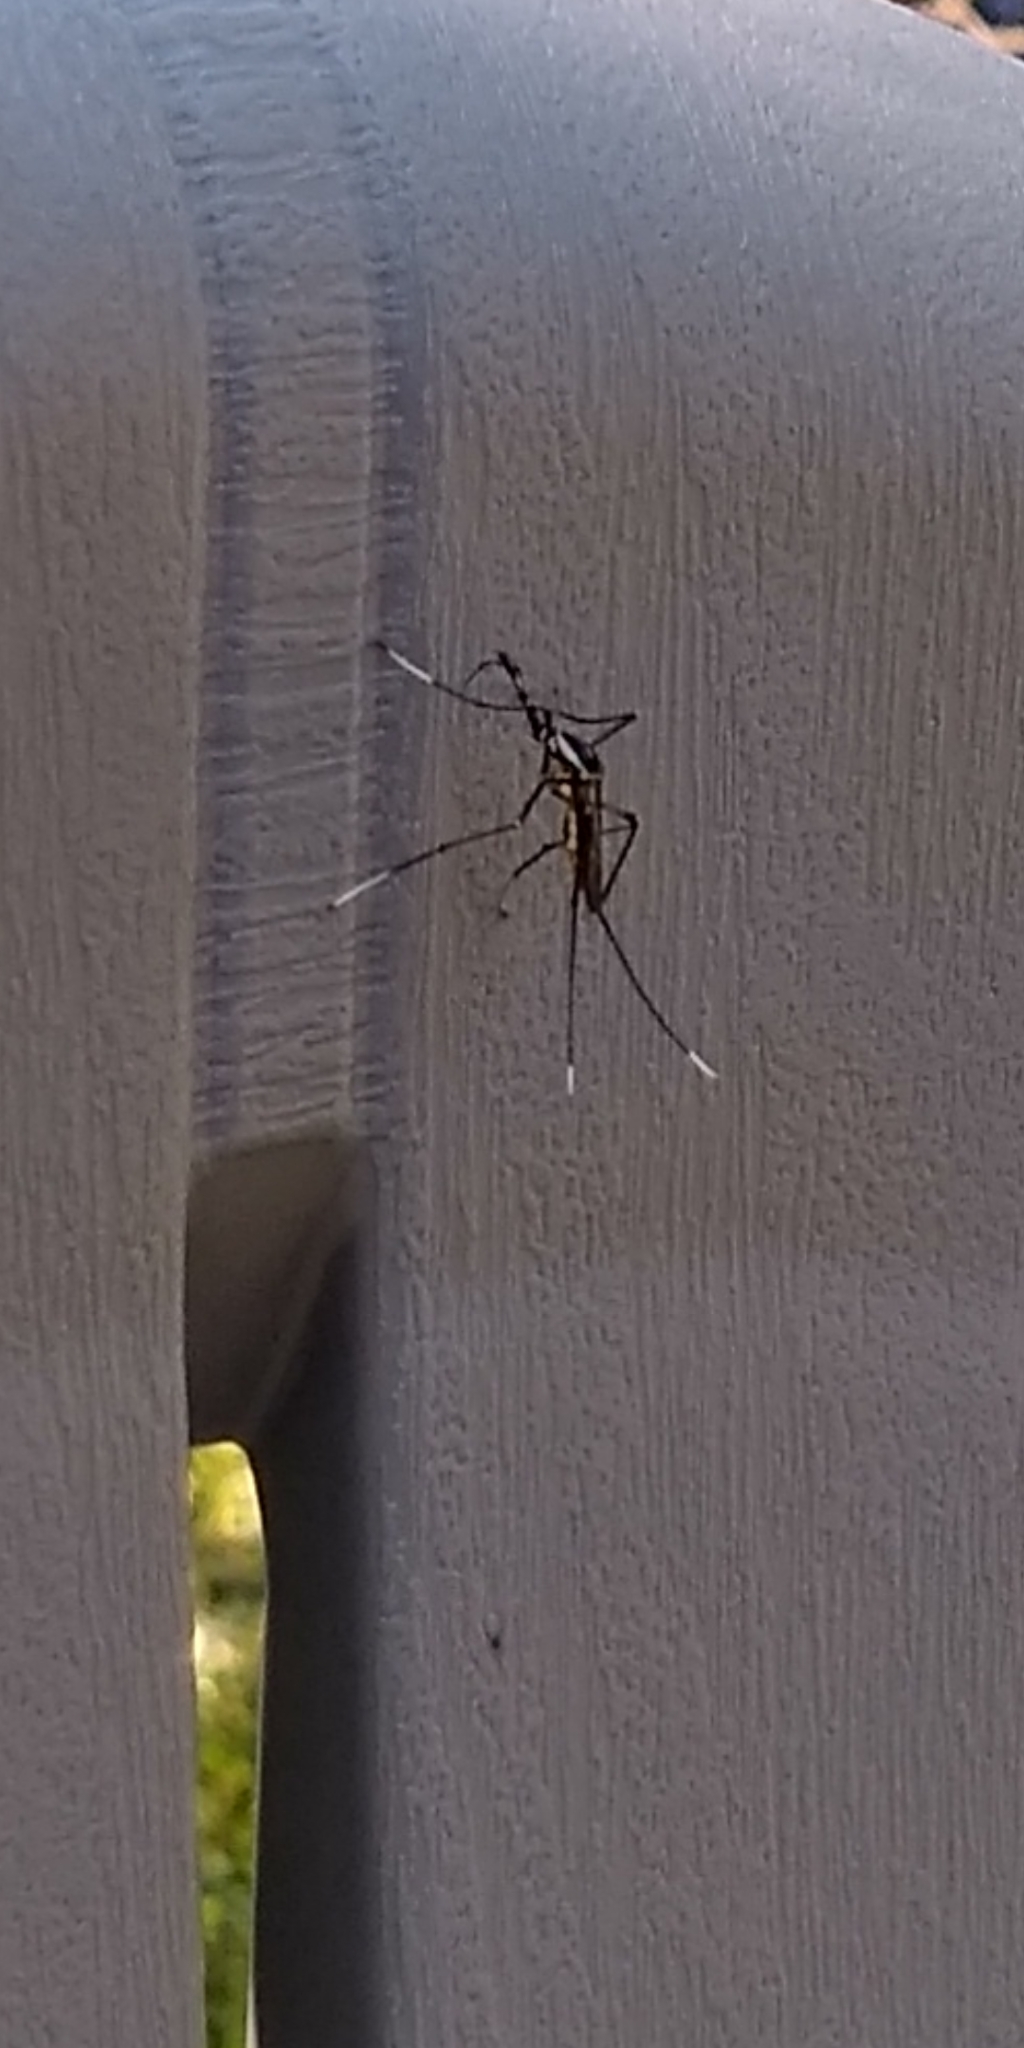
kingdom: Animalia
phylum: Arthropoda
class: Insecta
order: Diptera
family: Culicidae
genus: Toxorhynchites
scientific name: Toxorhynchites rutilus
